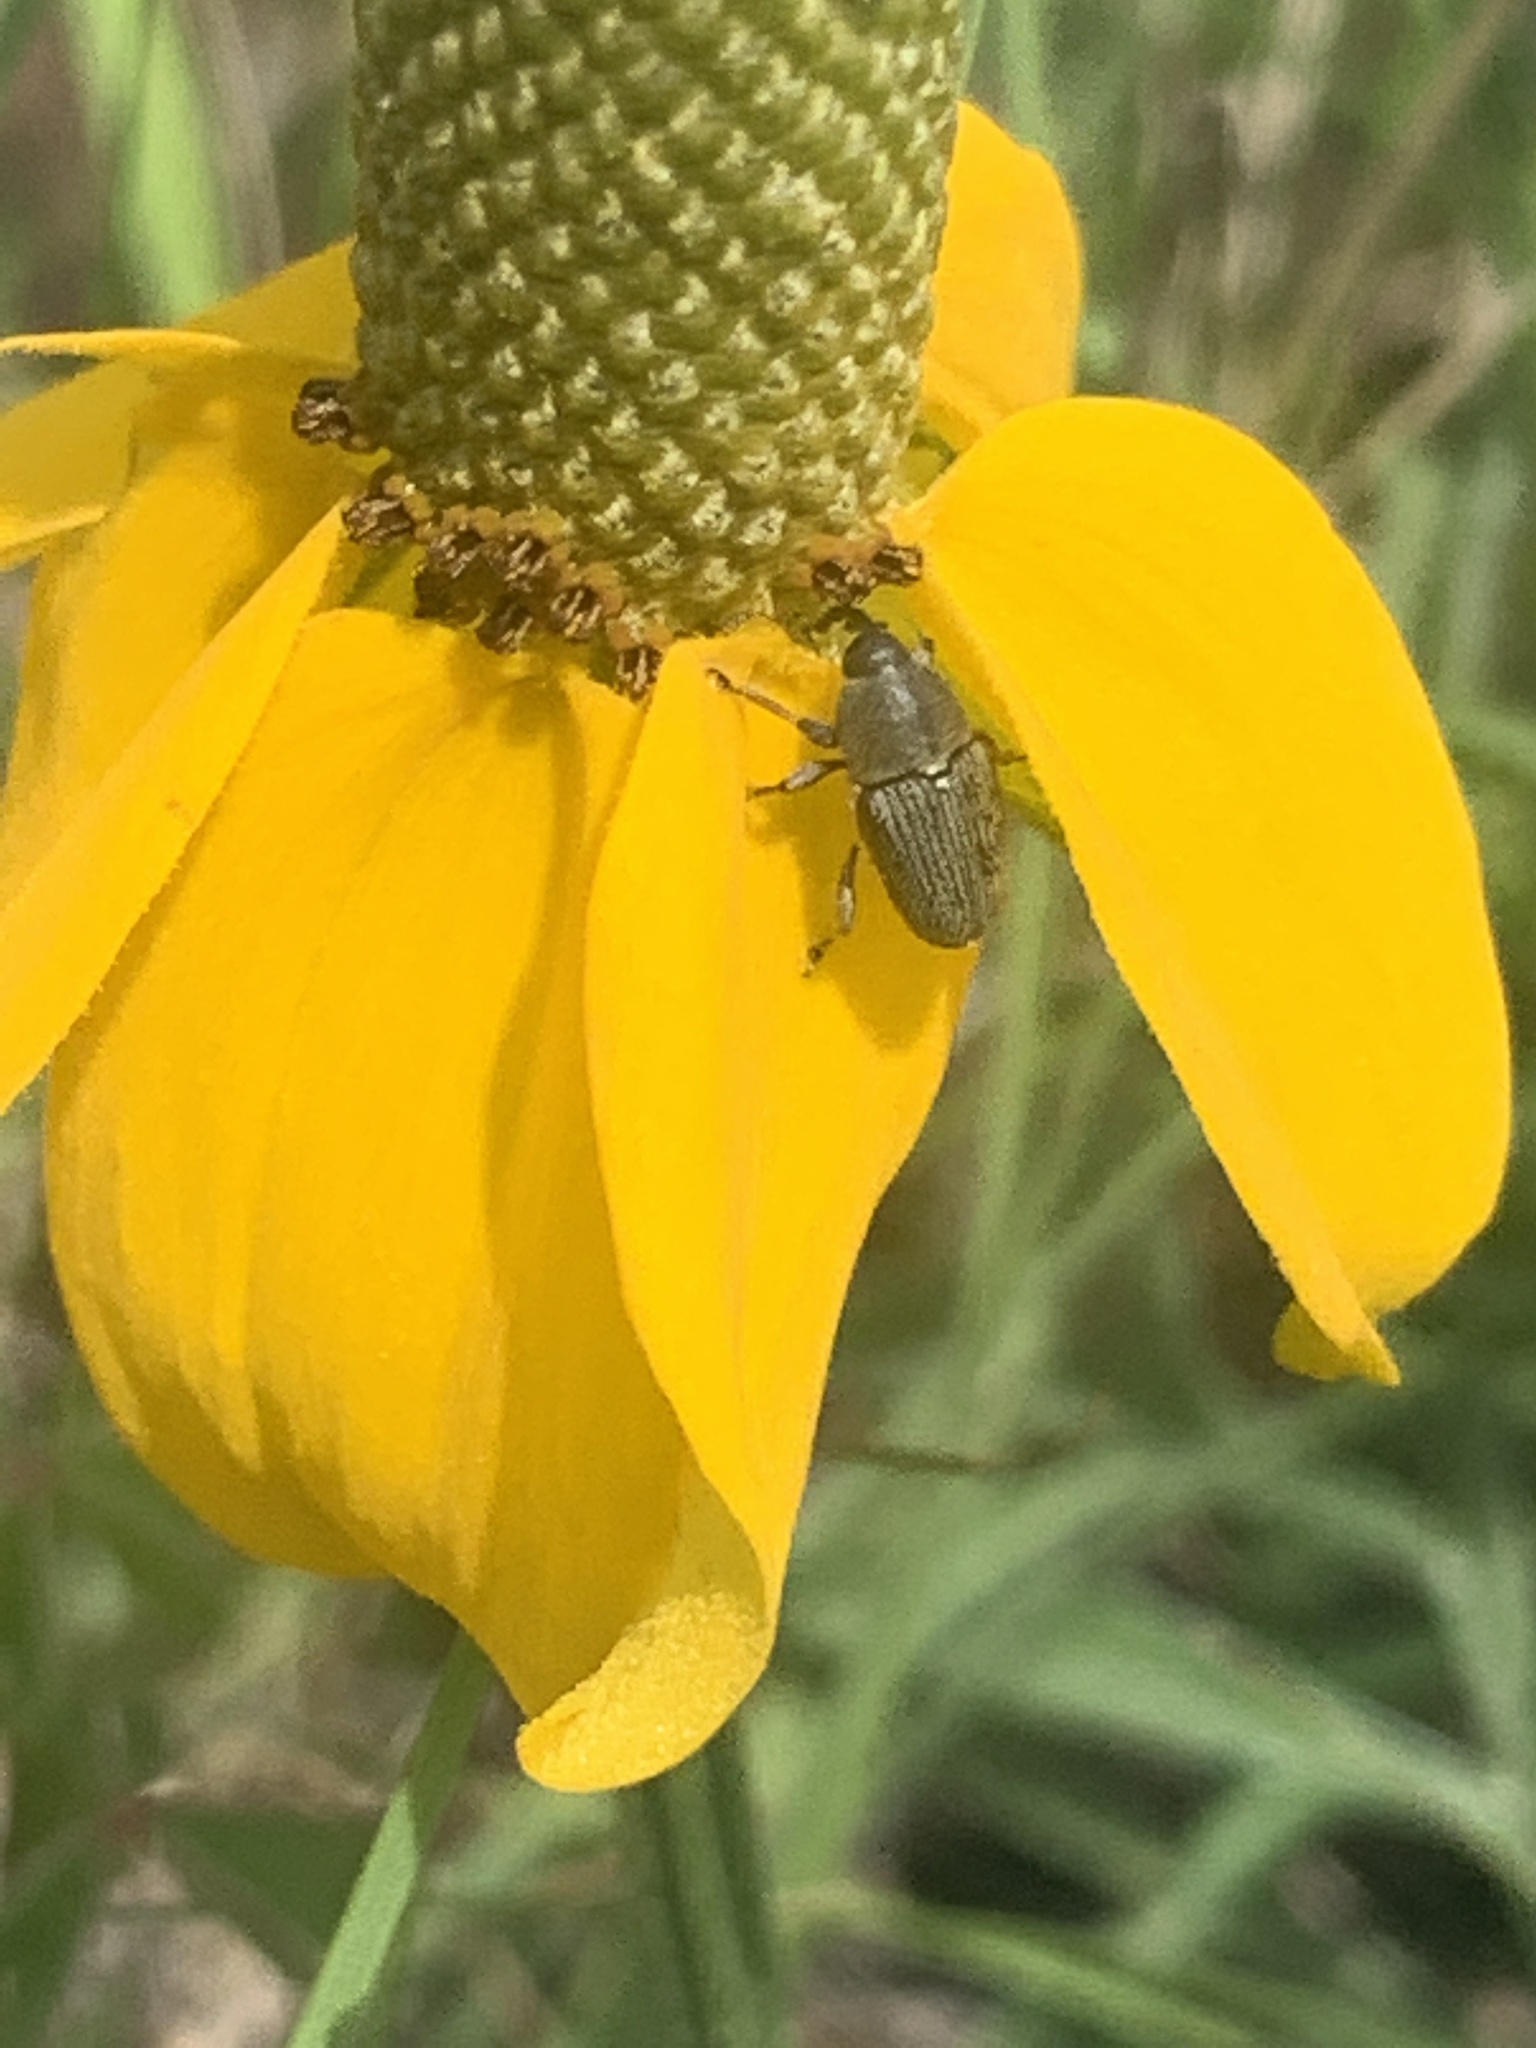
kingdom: Animalia
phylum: Arthropoda
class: Insecta
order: Coleoptera
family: Curculionidae
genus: Odontocorynus
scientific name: Odontocorynus salebrosus
